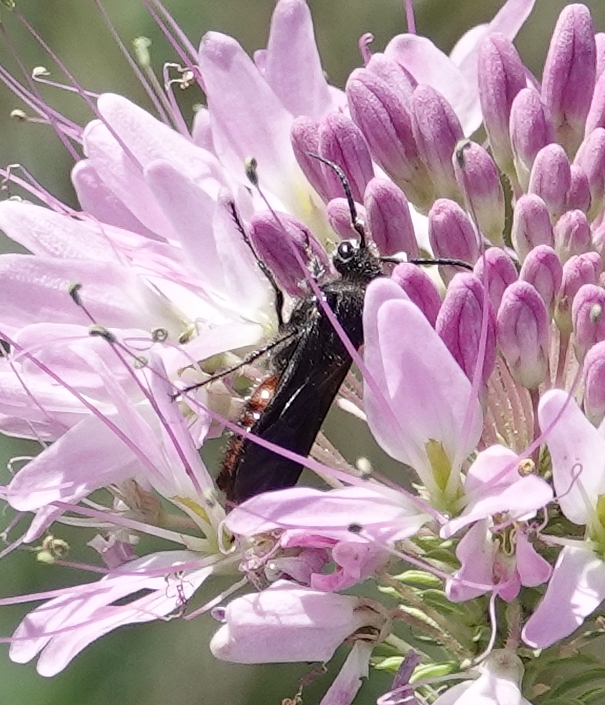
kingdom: Animalia
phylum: Arthropoda
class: Insecta
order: Hymenoptera
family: Mutillidae
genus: Timulla
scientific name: Timulla
